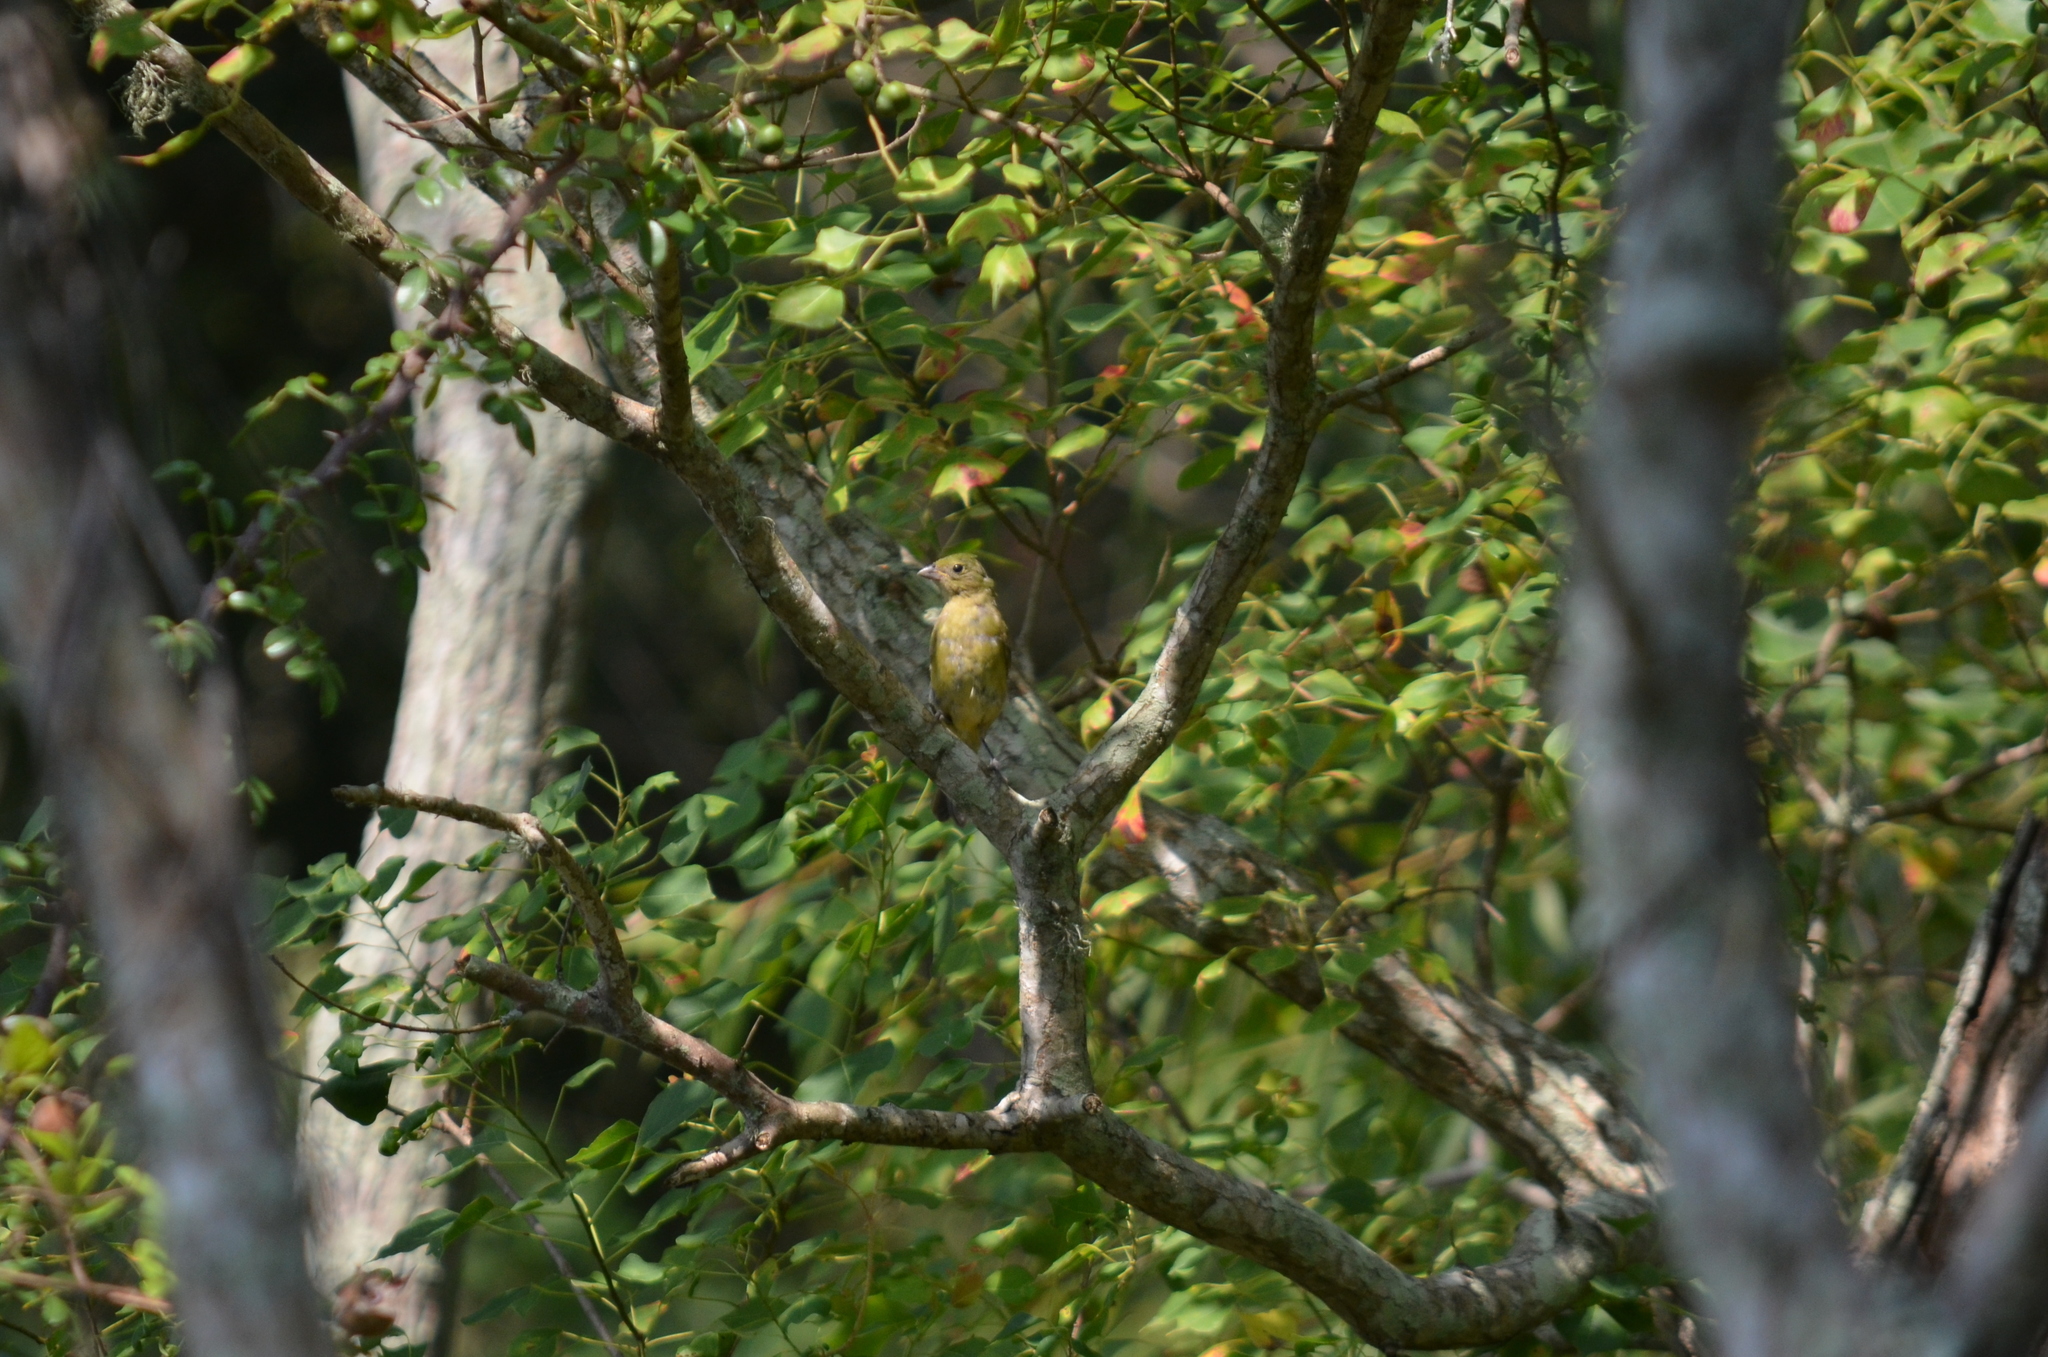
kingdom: Animalia
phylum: Chordata
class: Aves
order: Passeriformes
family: Cardinalidae
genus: Passerina
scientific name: Passerina ciris
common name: Painted bunting
